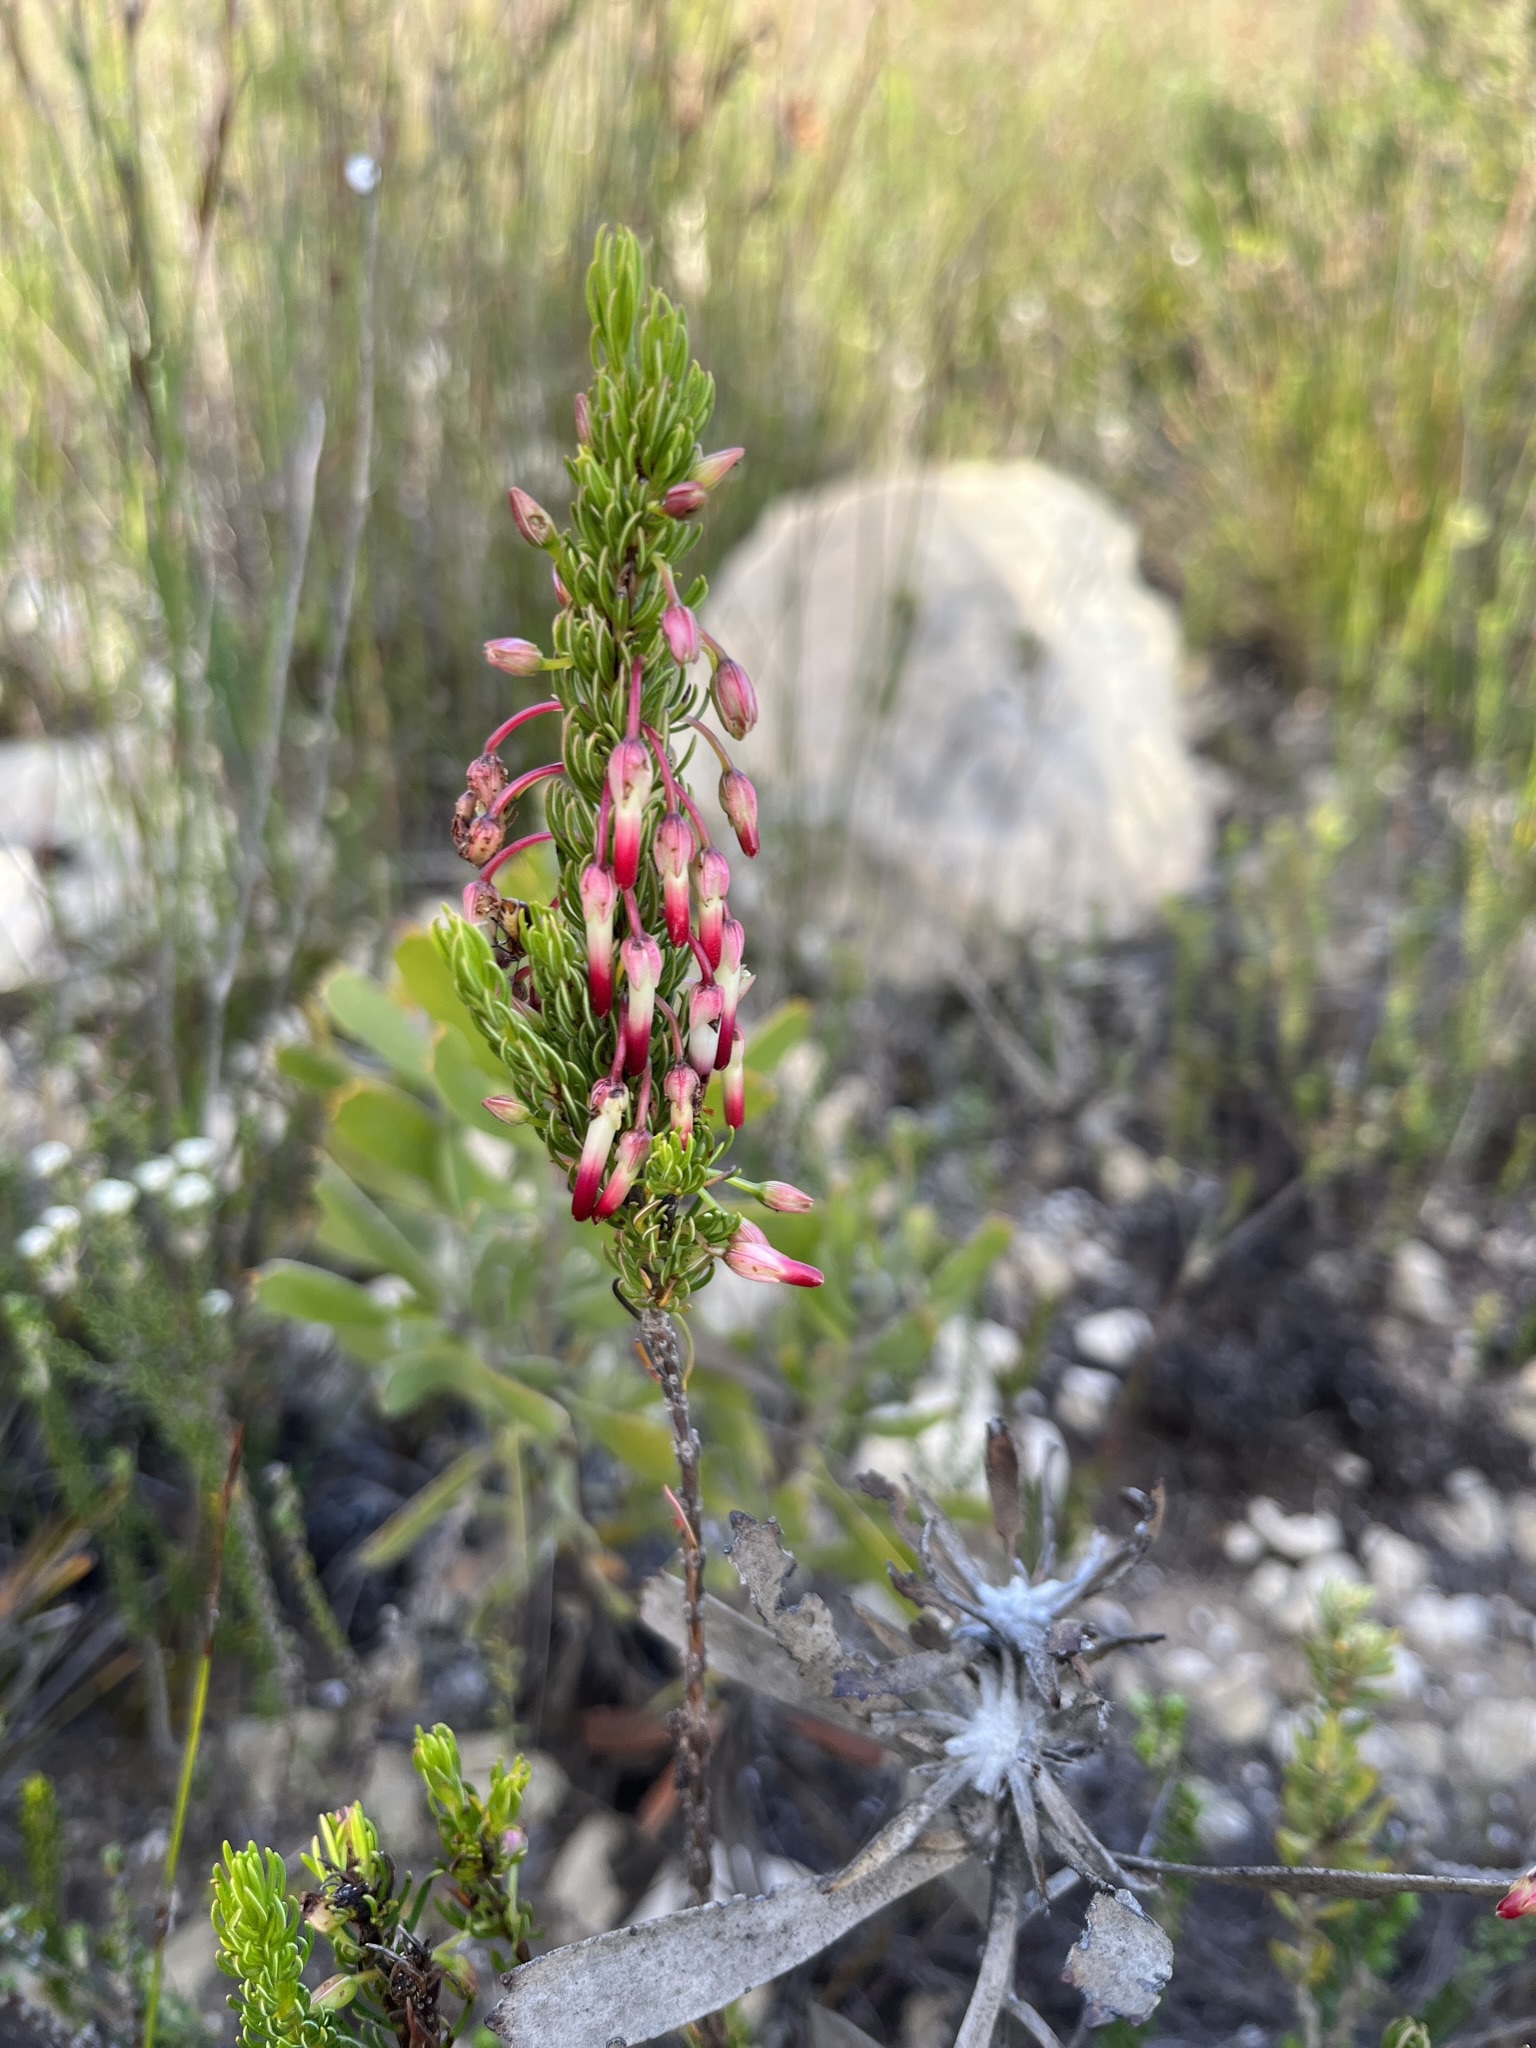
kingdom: Plantae
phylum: Tracheophyta
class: Magnoliopsida
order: Ericales
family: Ericaceae
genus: Erica
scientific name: Erica plukenetii
